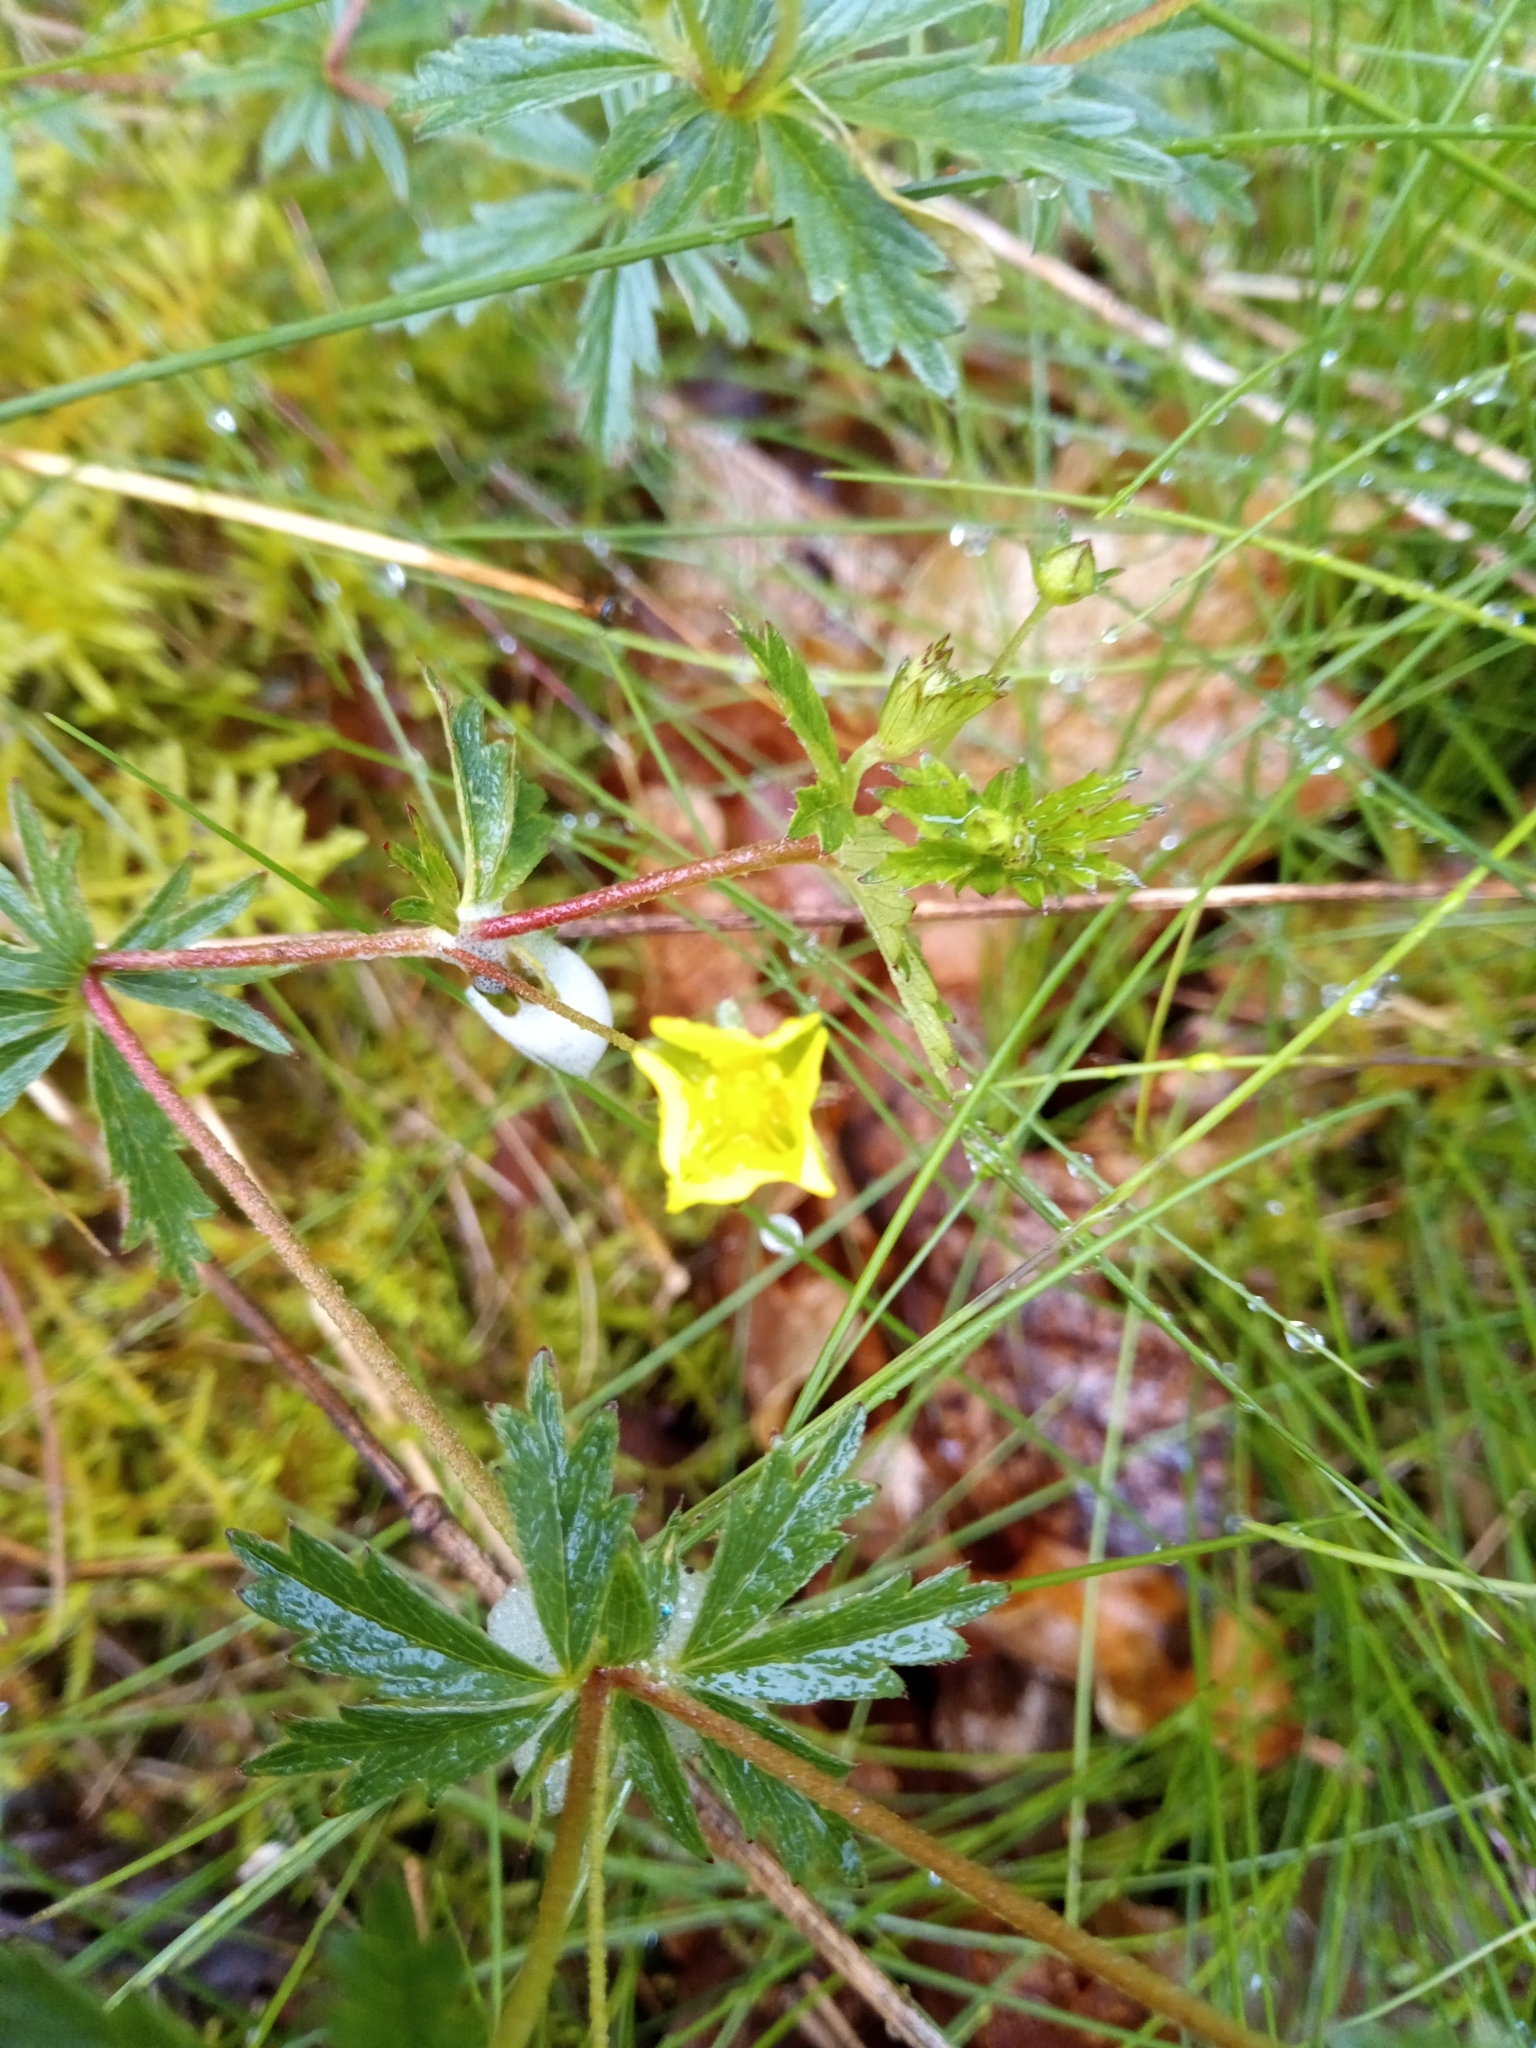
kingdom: Plantae
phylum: Tracheophyta
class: Magnoliopsida
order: Rosales
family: Rosaceae
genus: Potentilla
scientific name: Potentilla erecta
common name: Tormentil
